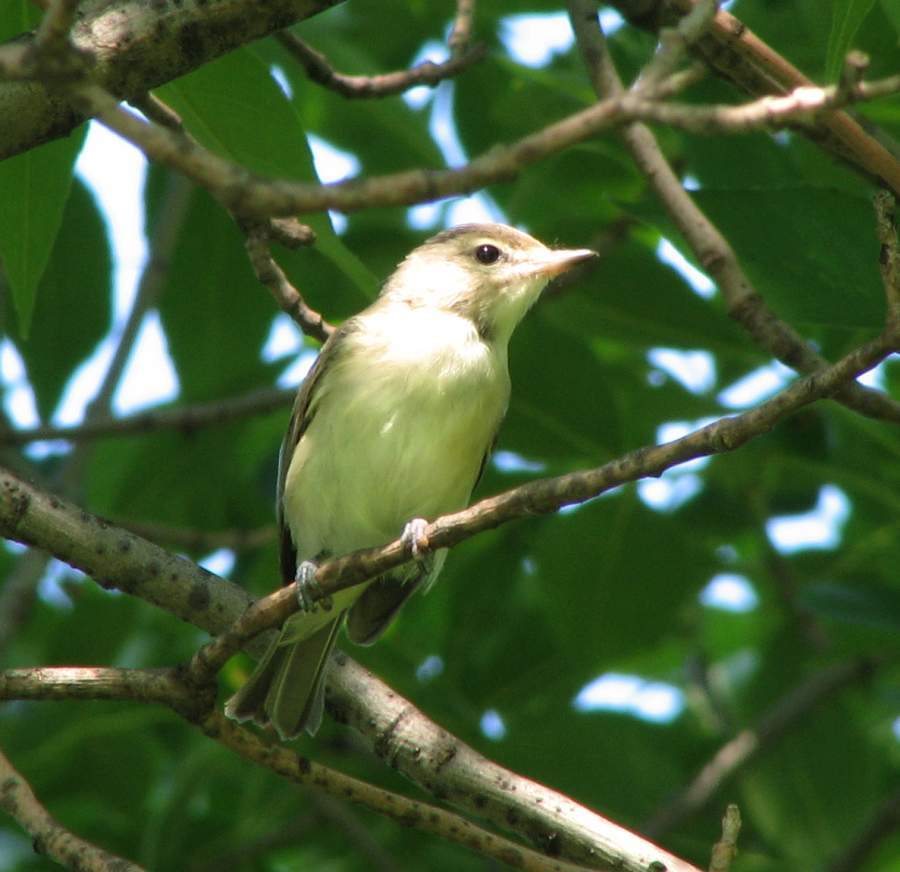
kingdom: Animalia
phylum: Chordata
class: Aves
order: Passeriformes
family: Vireonidae
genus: Vireo
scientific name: Vireo gilvus
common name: Warbling vireo
